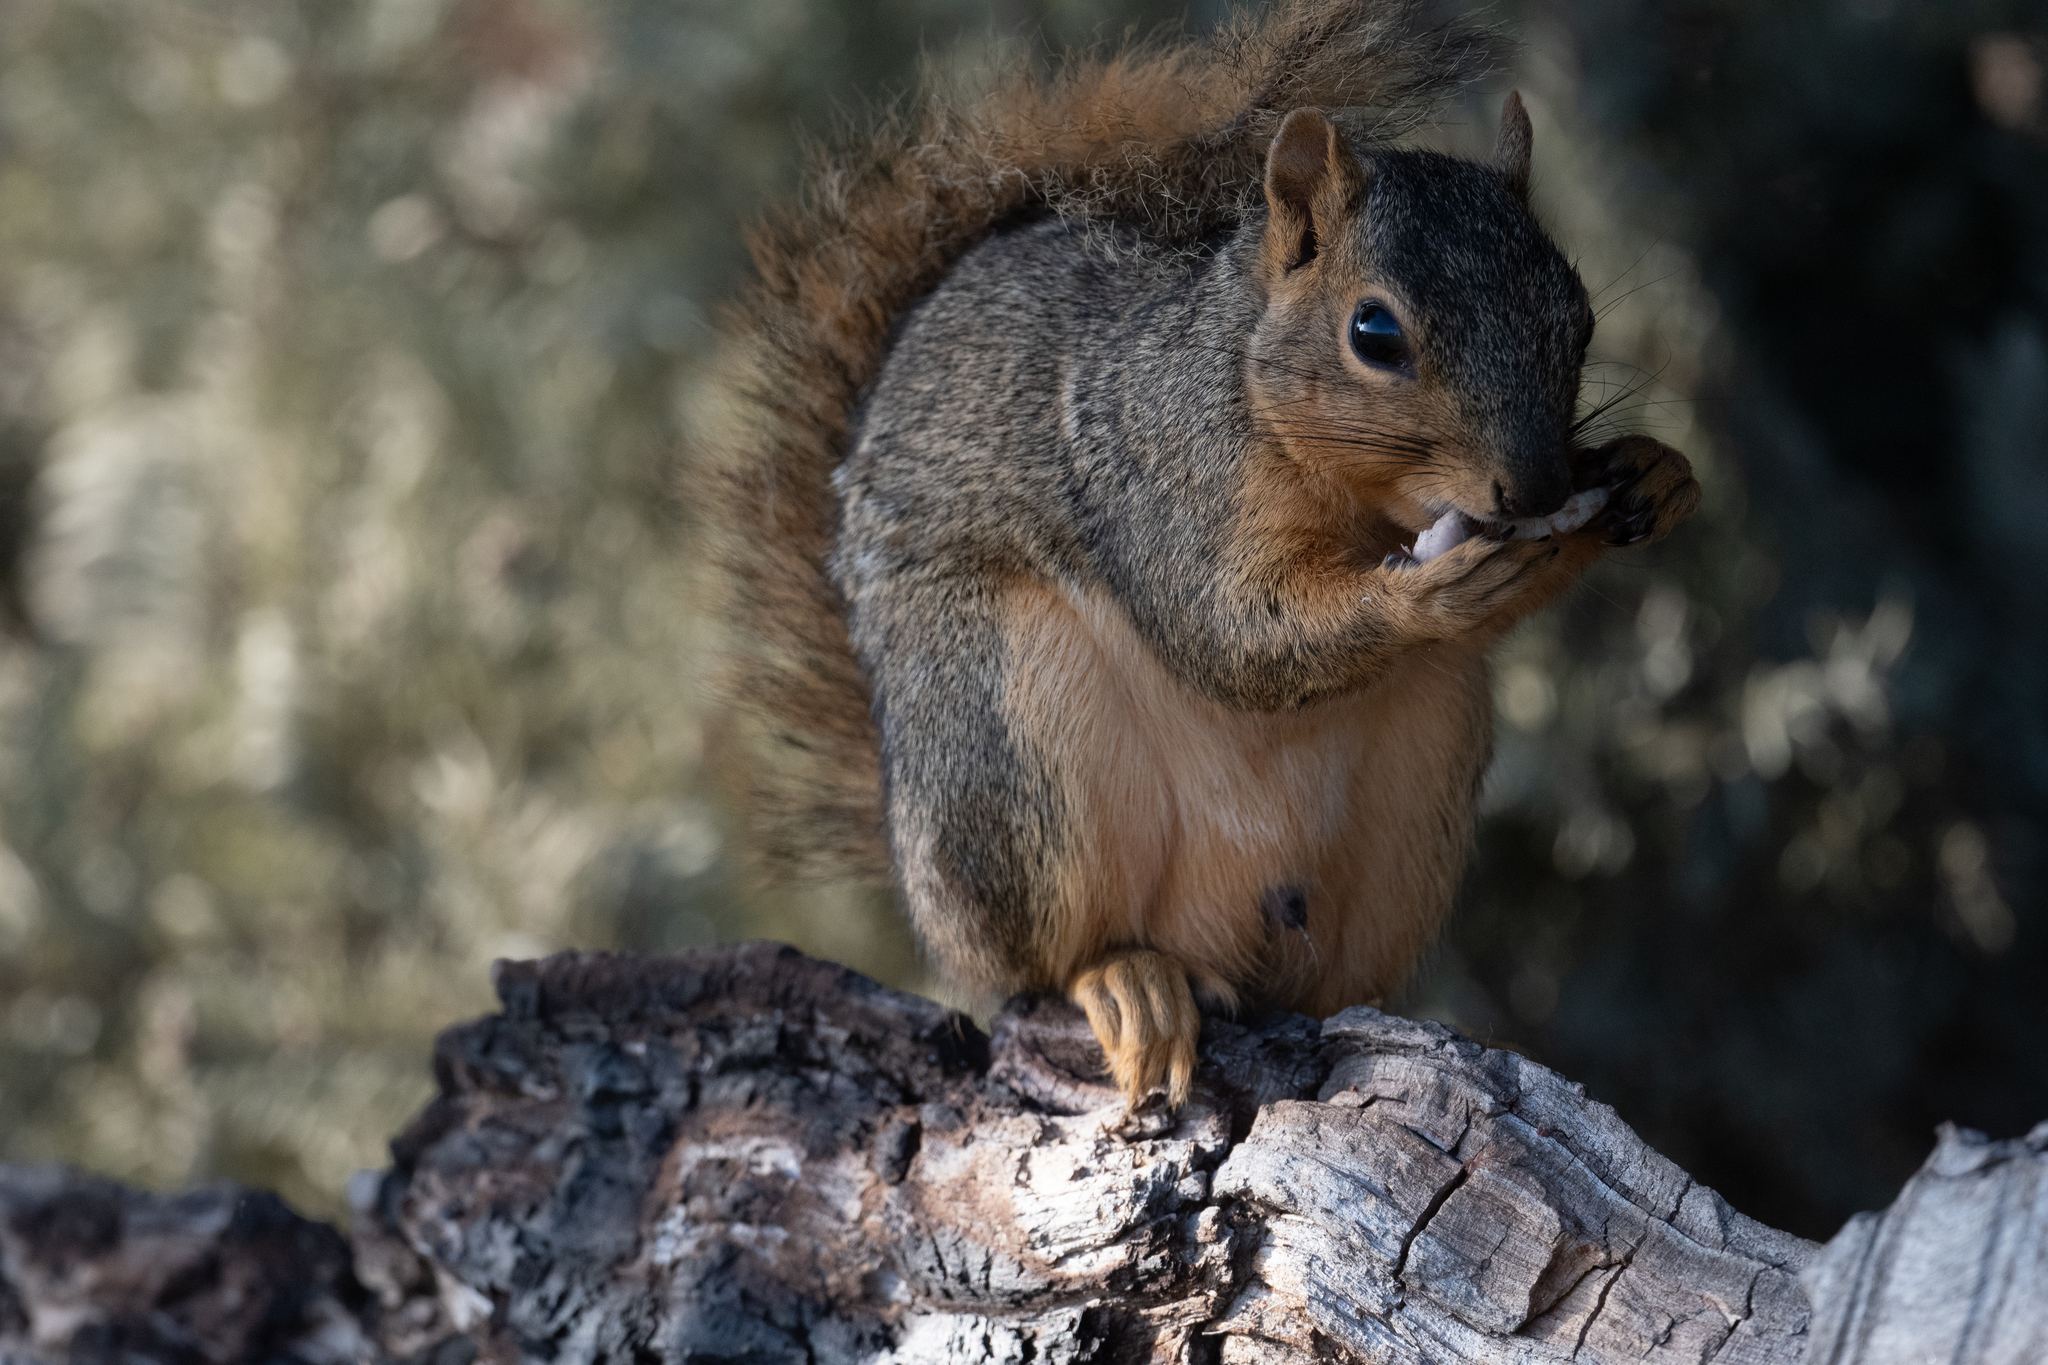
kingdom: Animalia
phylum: Chordata
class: Mammalia
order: Rodentia
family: Sciuridae
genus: Sciurus
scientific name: Sciurus niger
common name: Fox squirrel
